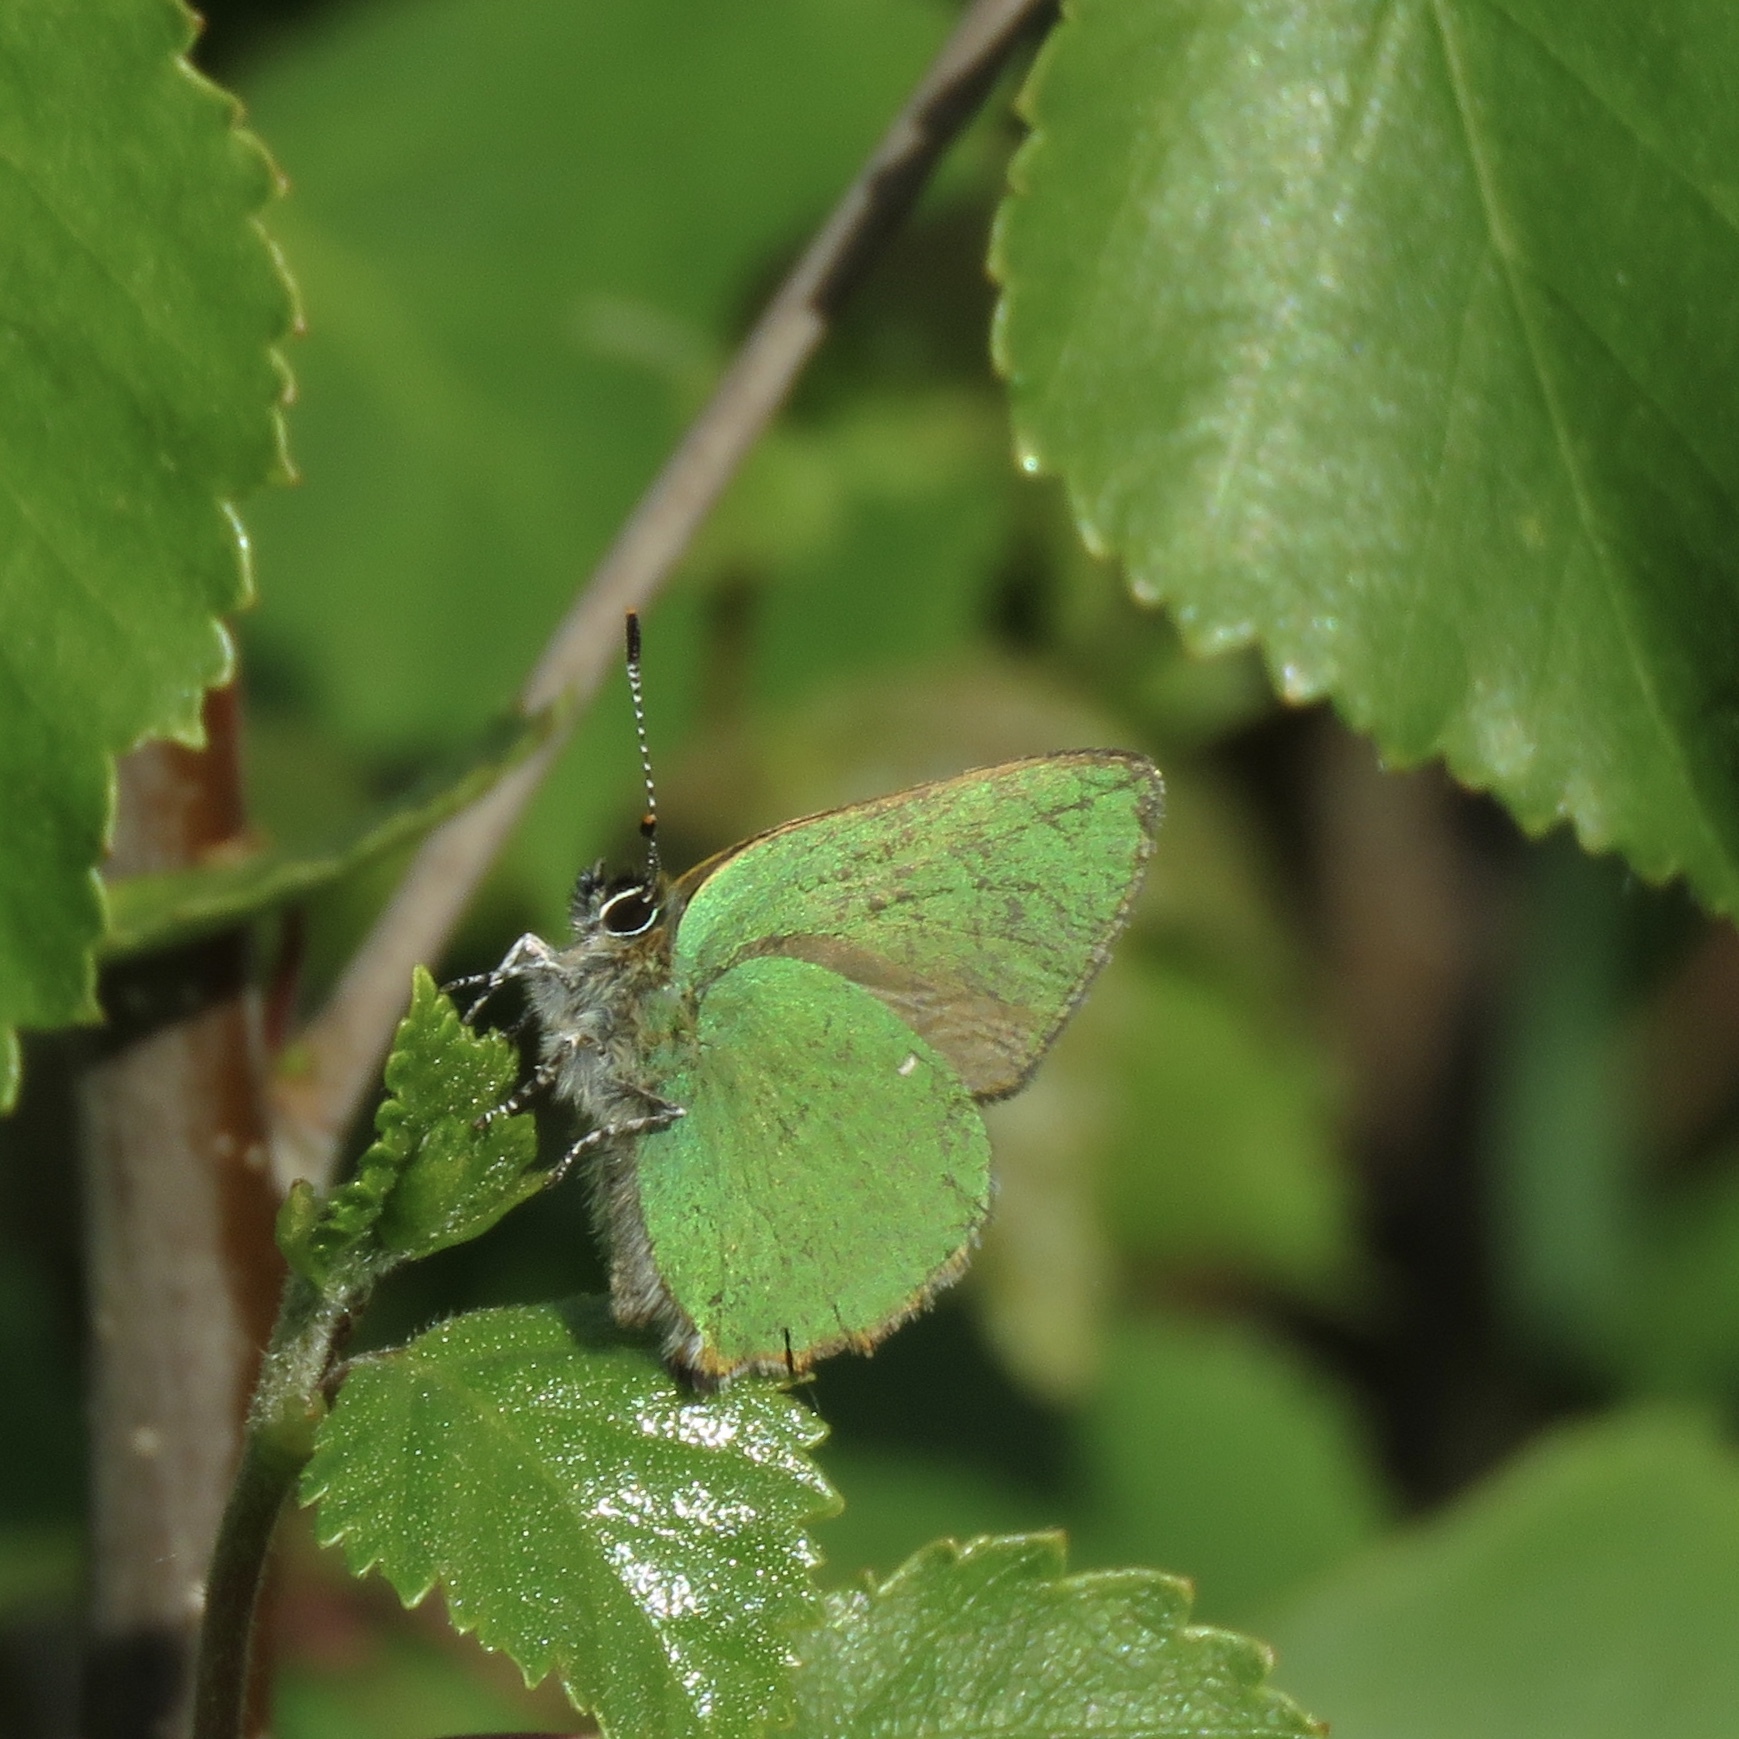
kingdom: Animalia
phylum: Arthropoda
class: Insecta
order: Lepidoptera
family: Lycaenidae
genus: Callophrys
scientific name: Callophrys rubi
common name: Green hairstreak
